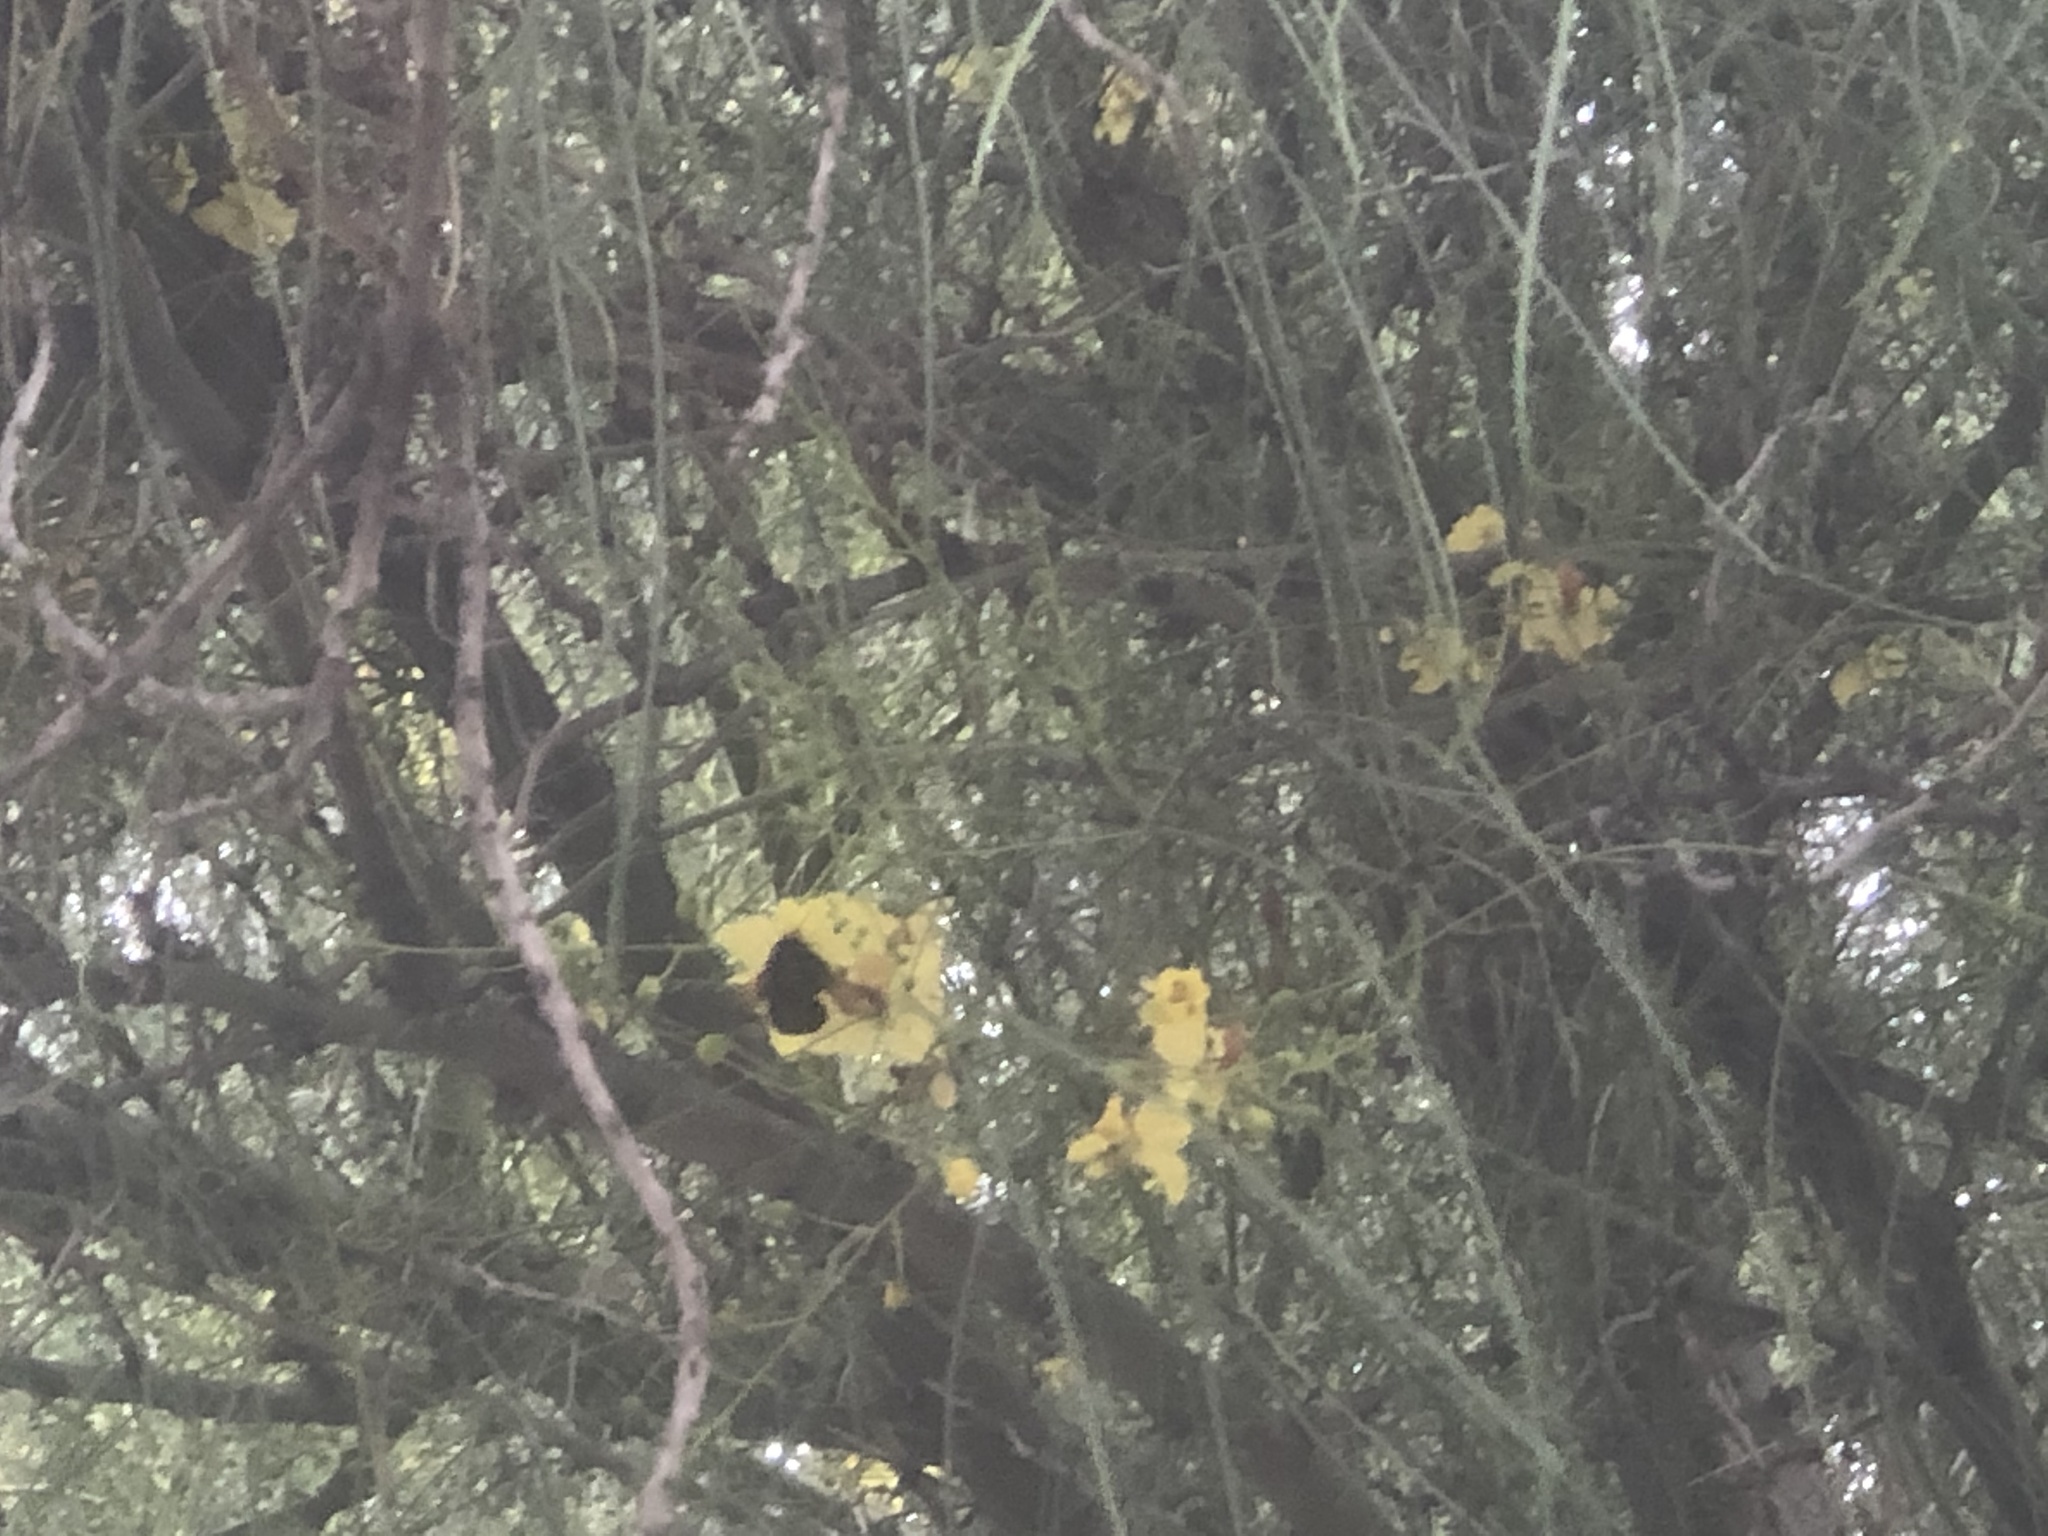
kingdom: Animalia
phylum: Arthropoda
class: Insecta
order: Hymenoptera
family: Apidae
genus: Xylocopa
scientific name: Xylocopa sonorina
